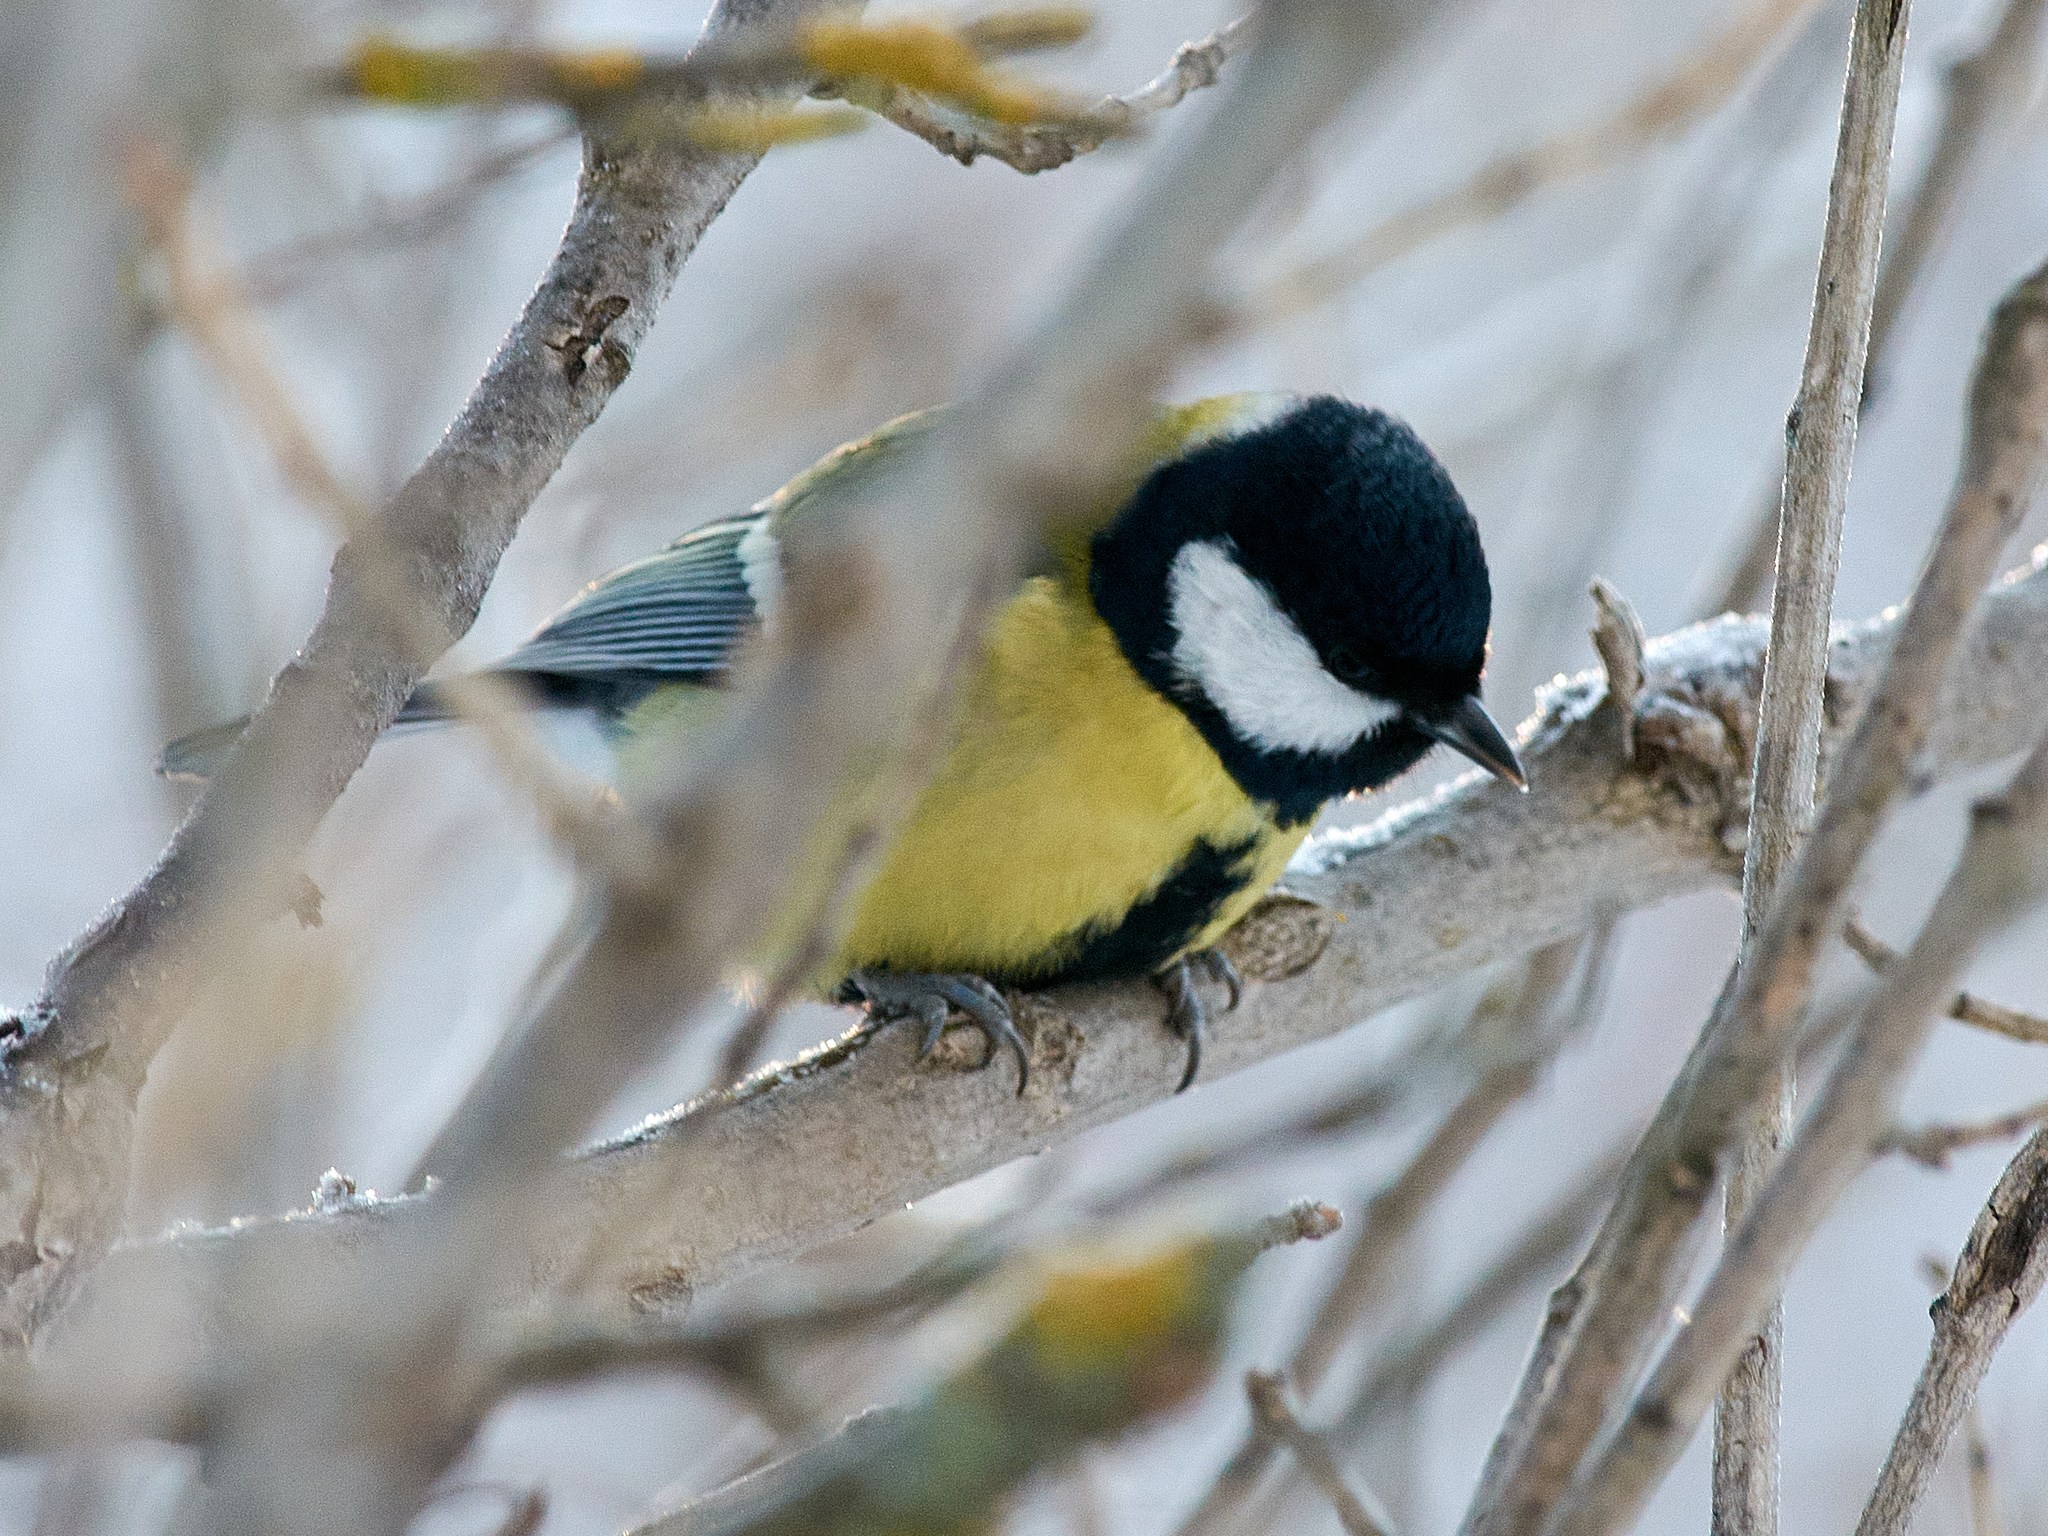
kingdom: Animalia
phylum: Chordata
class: Aves
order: Passeriformes
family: Paridae
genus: Parus
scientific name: Parus major
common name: Great tit
